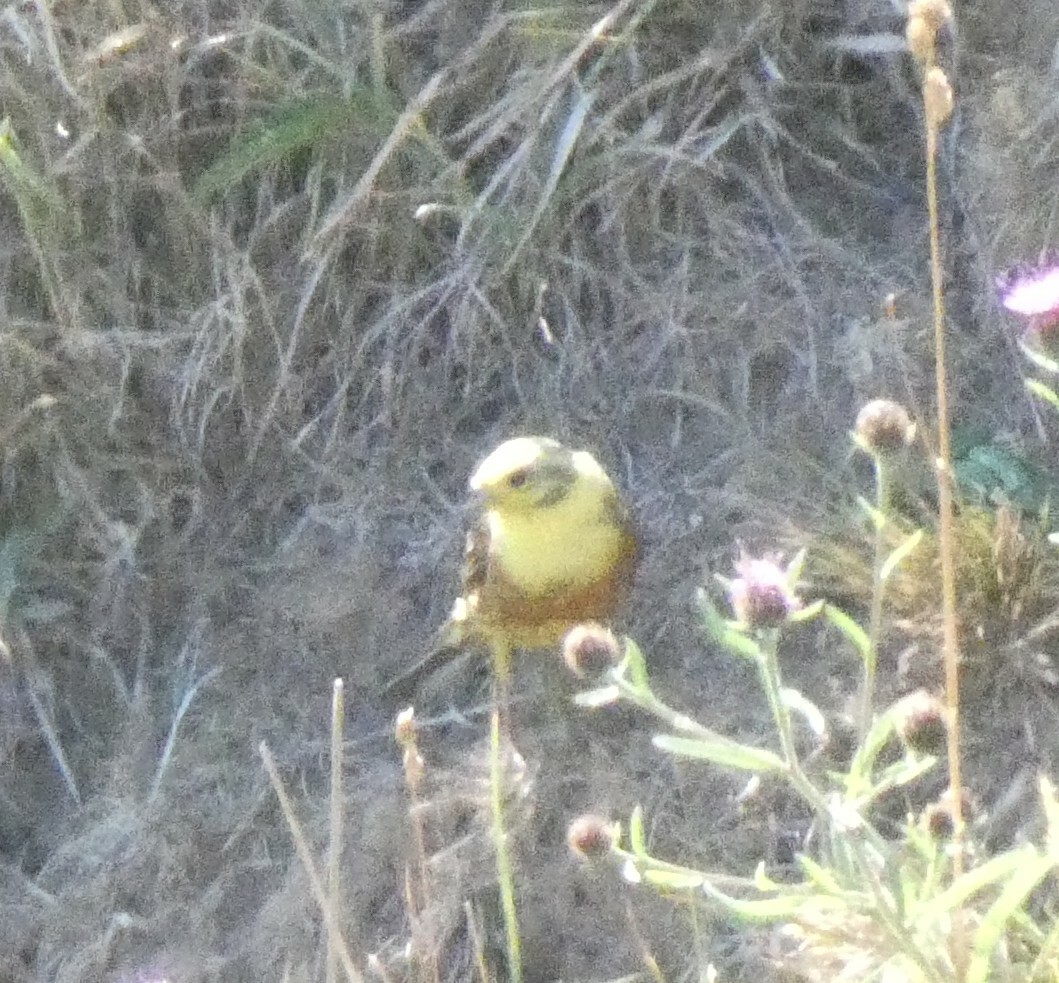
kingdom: Animalia
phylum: Chordata
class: Aves
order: Passeriformes
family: Emberizidae
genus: Emberiza
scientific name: Emberiza citrinella
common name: Yellowhammer
